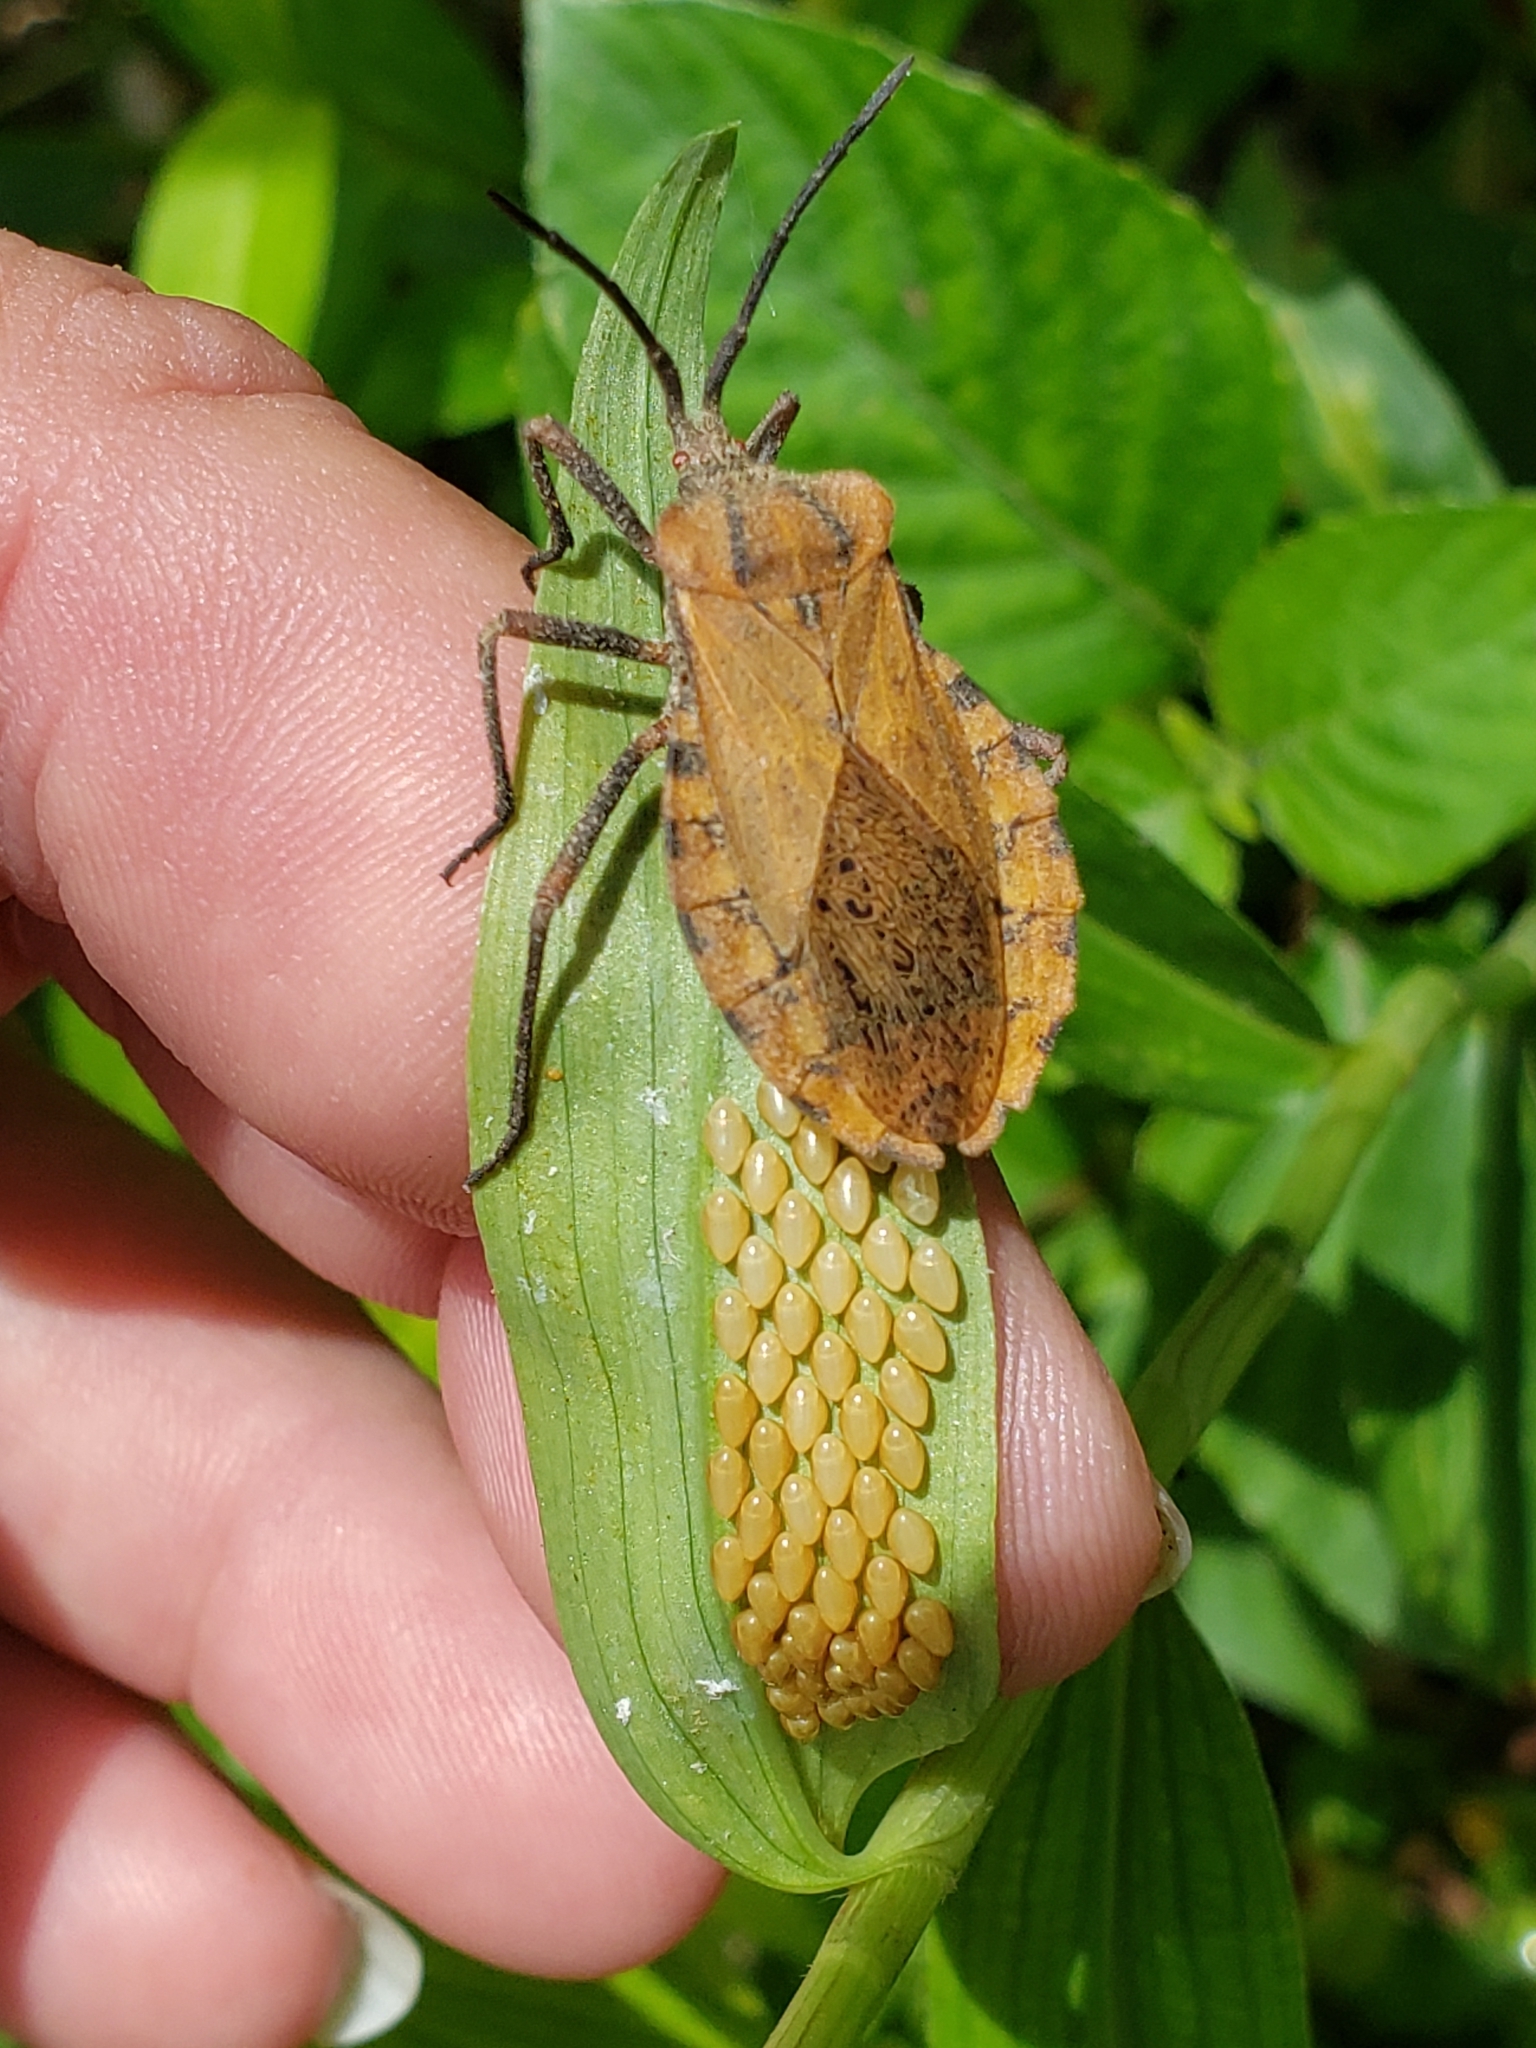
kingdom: Animalia
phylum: Arthropoda
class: Insecta
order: Hemiptera
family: Coreidae
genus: Spartocera
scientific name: Spartocera fusca
